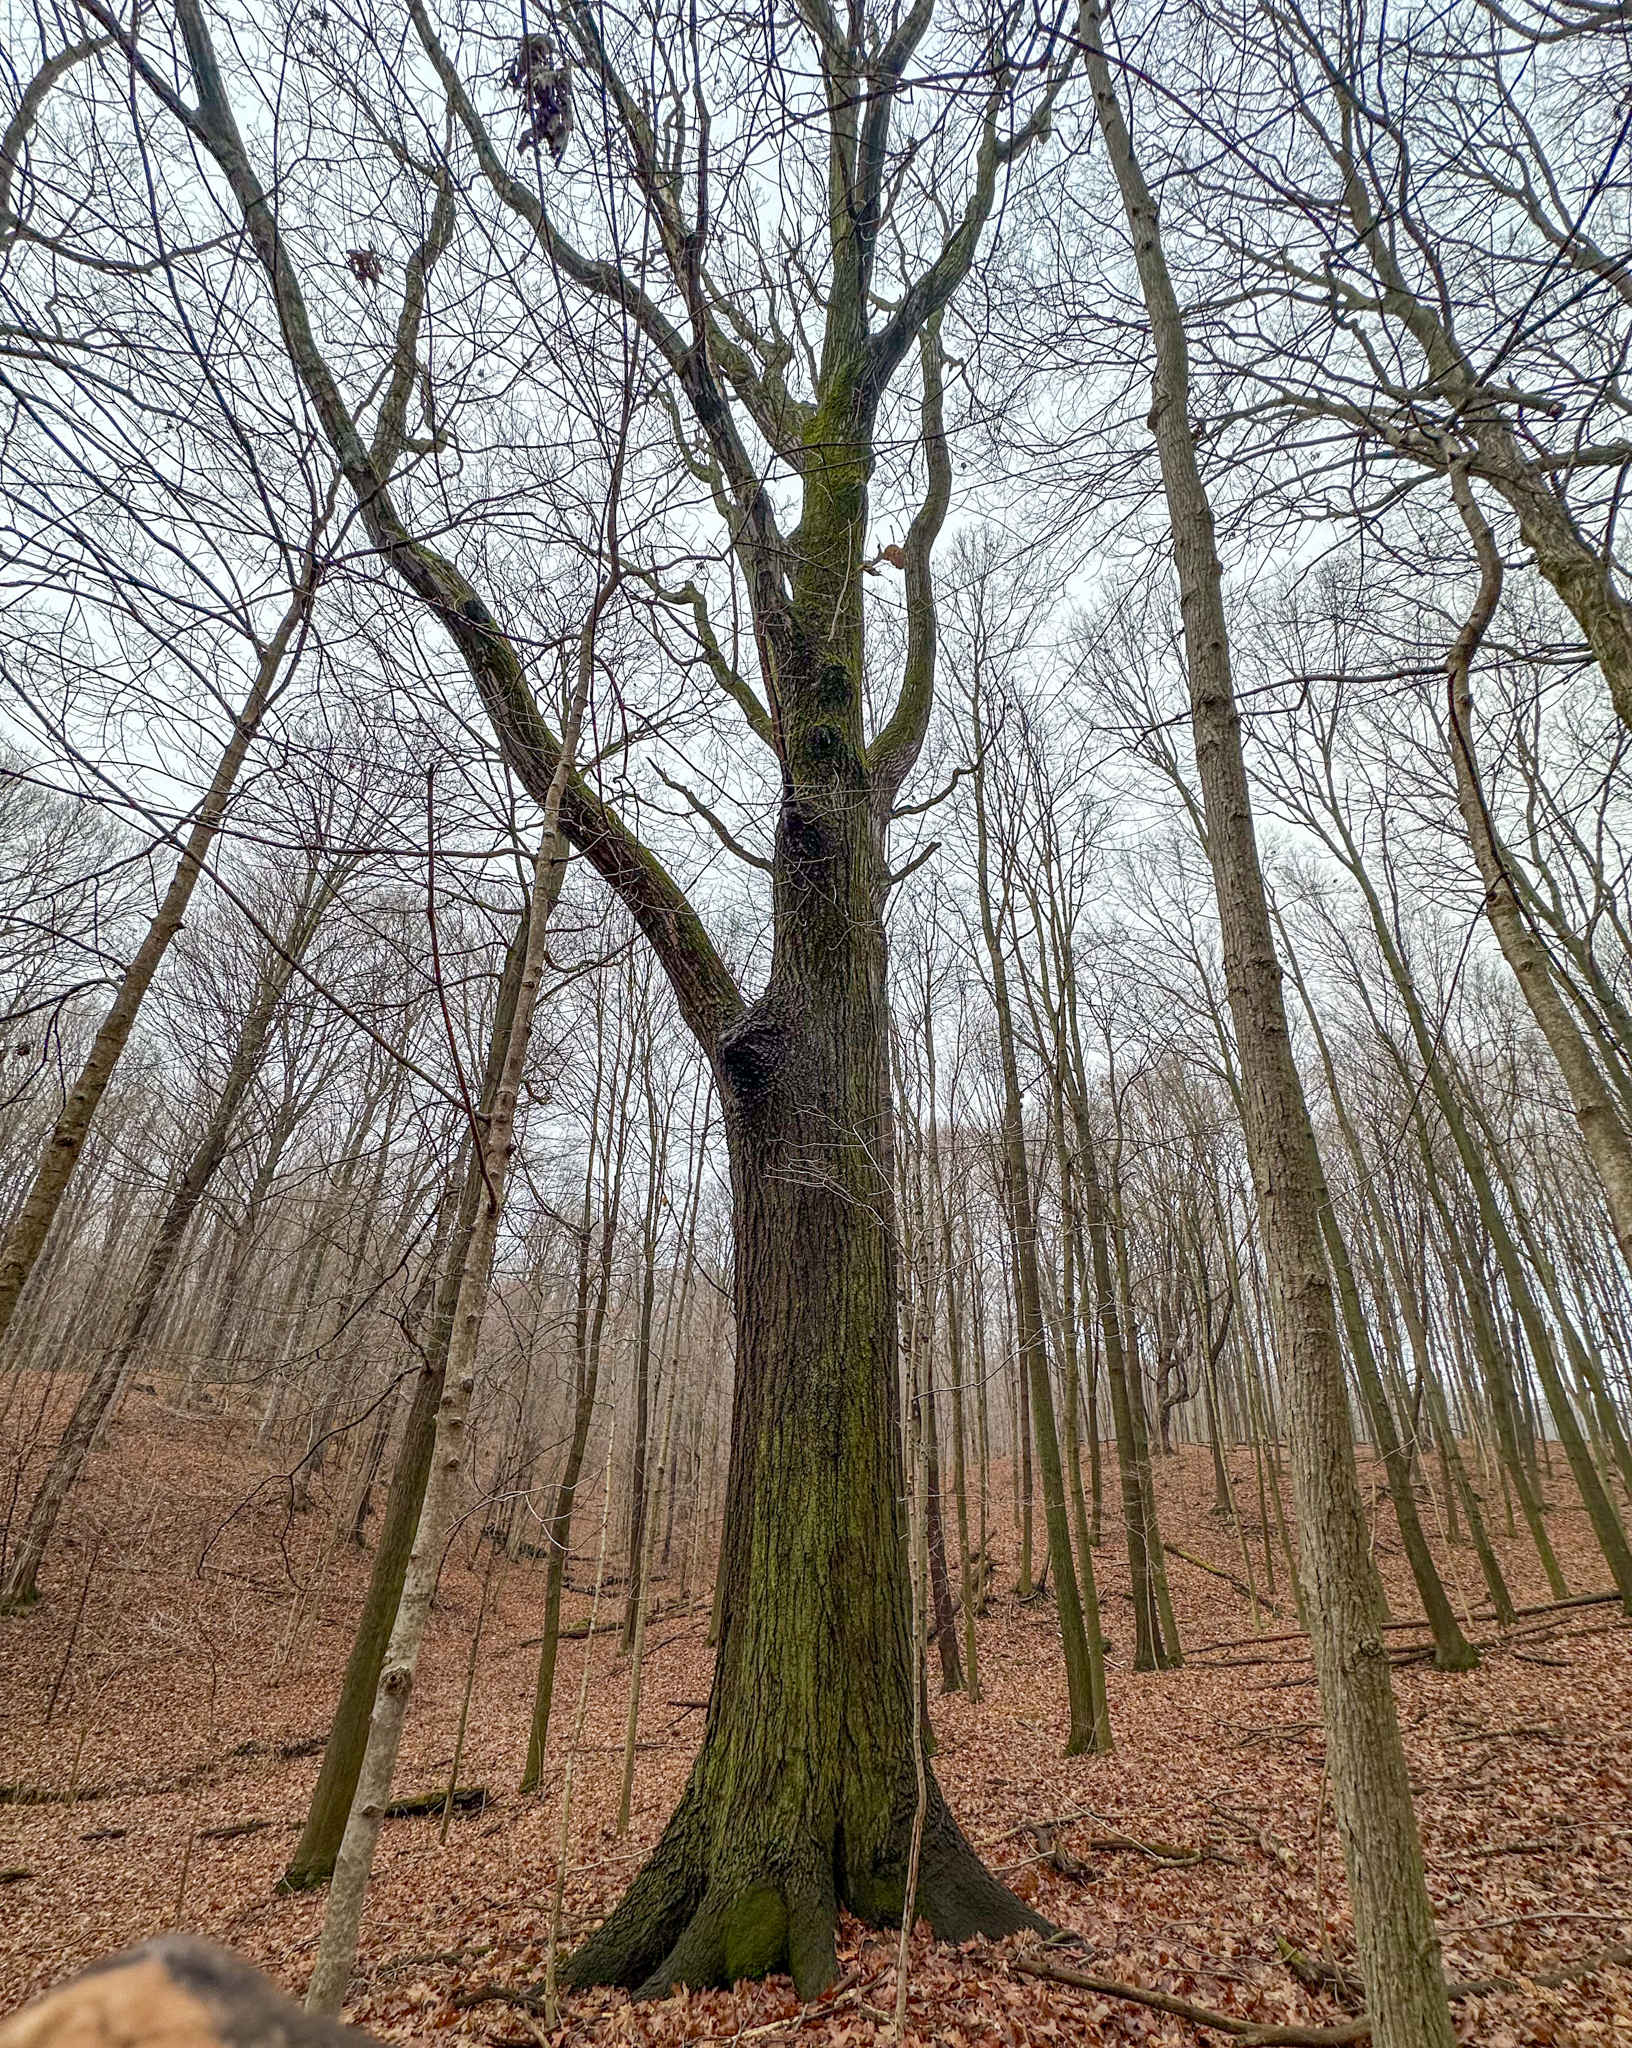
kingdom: Plantae
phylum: Tracheophyta
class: Magnoliopsida
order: Fagales
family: Fagaceae
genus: Quercus
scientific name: Quercus rubra
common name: Red oak
